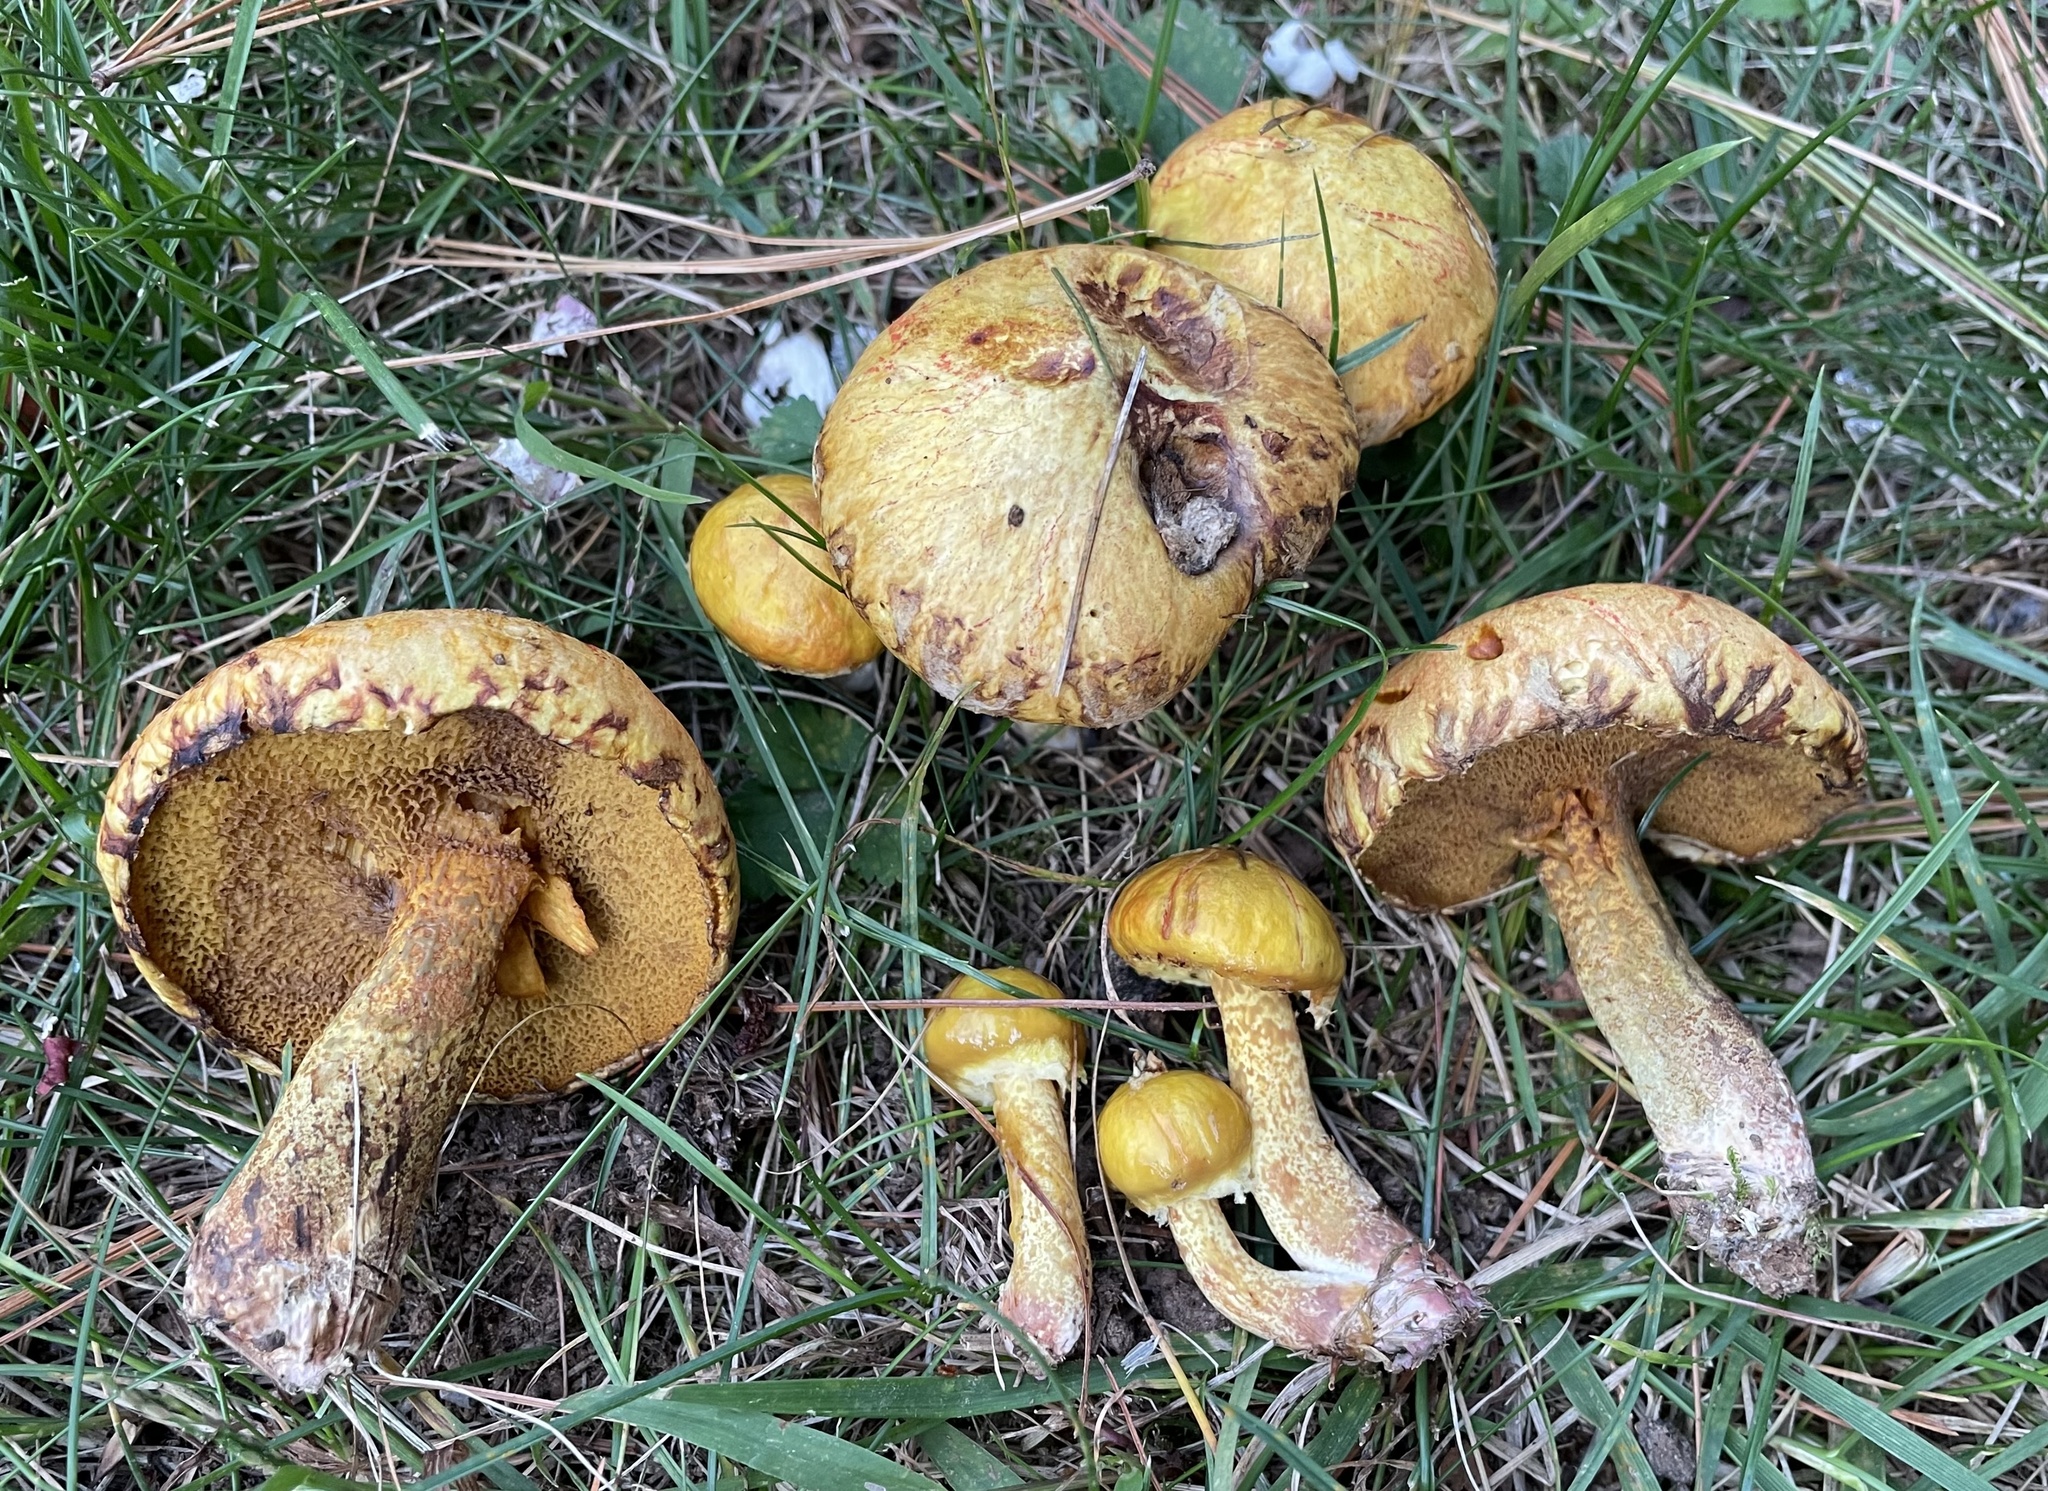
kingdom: Fungi
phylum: Basidiomycota
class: Agaricomycetes
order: Boletales
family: Suillaceae
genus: Suillus
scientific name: Suillus americanus
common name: Chicken fat mushroom
